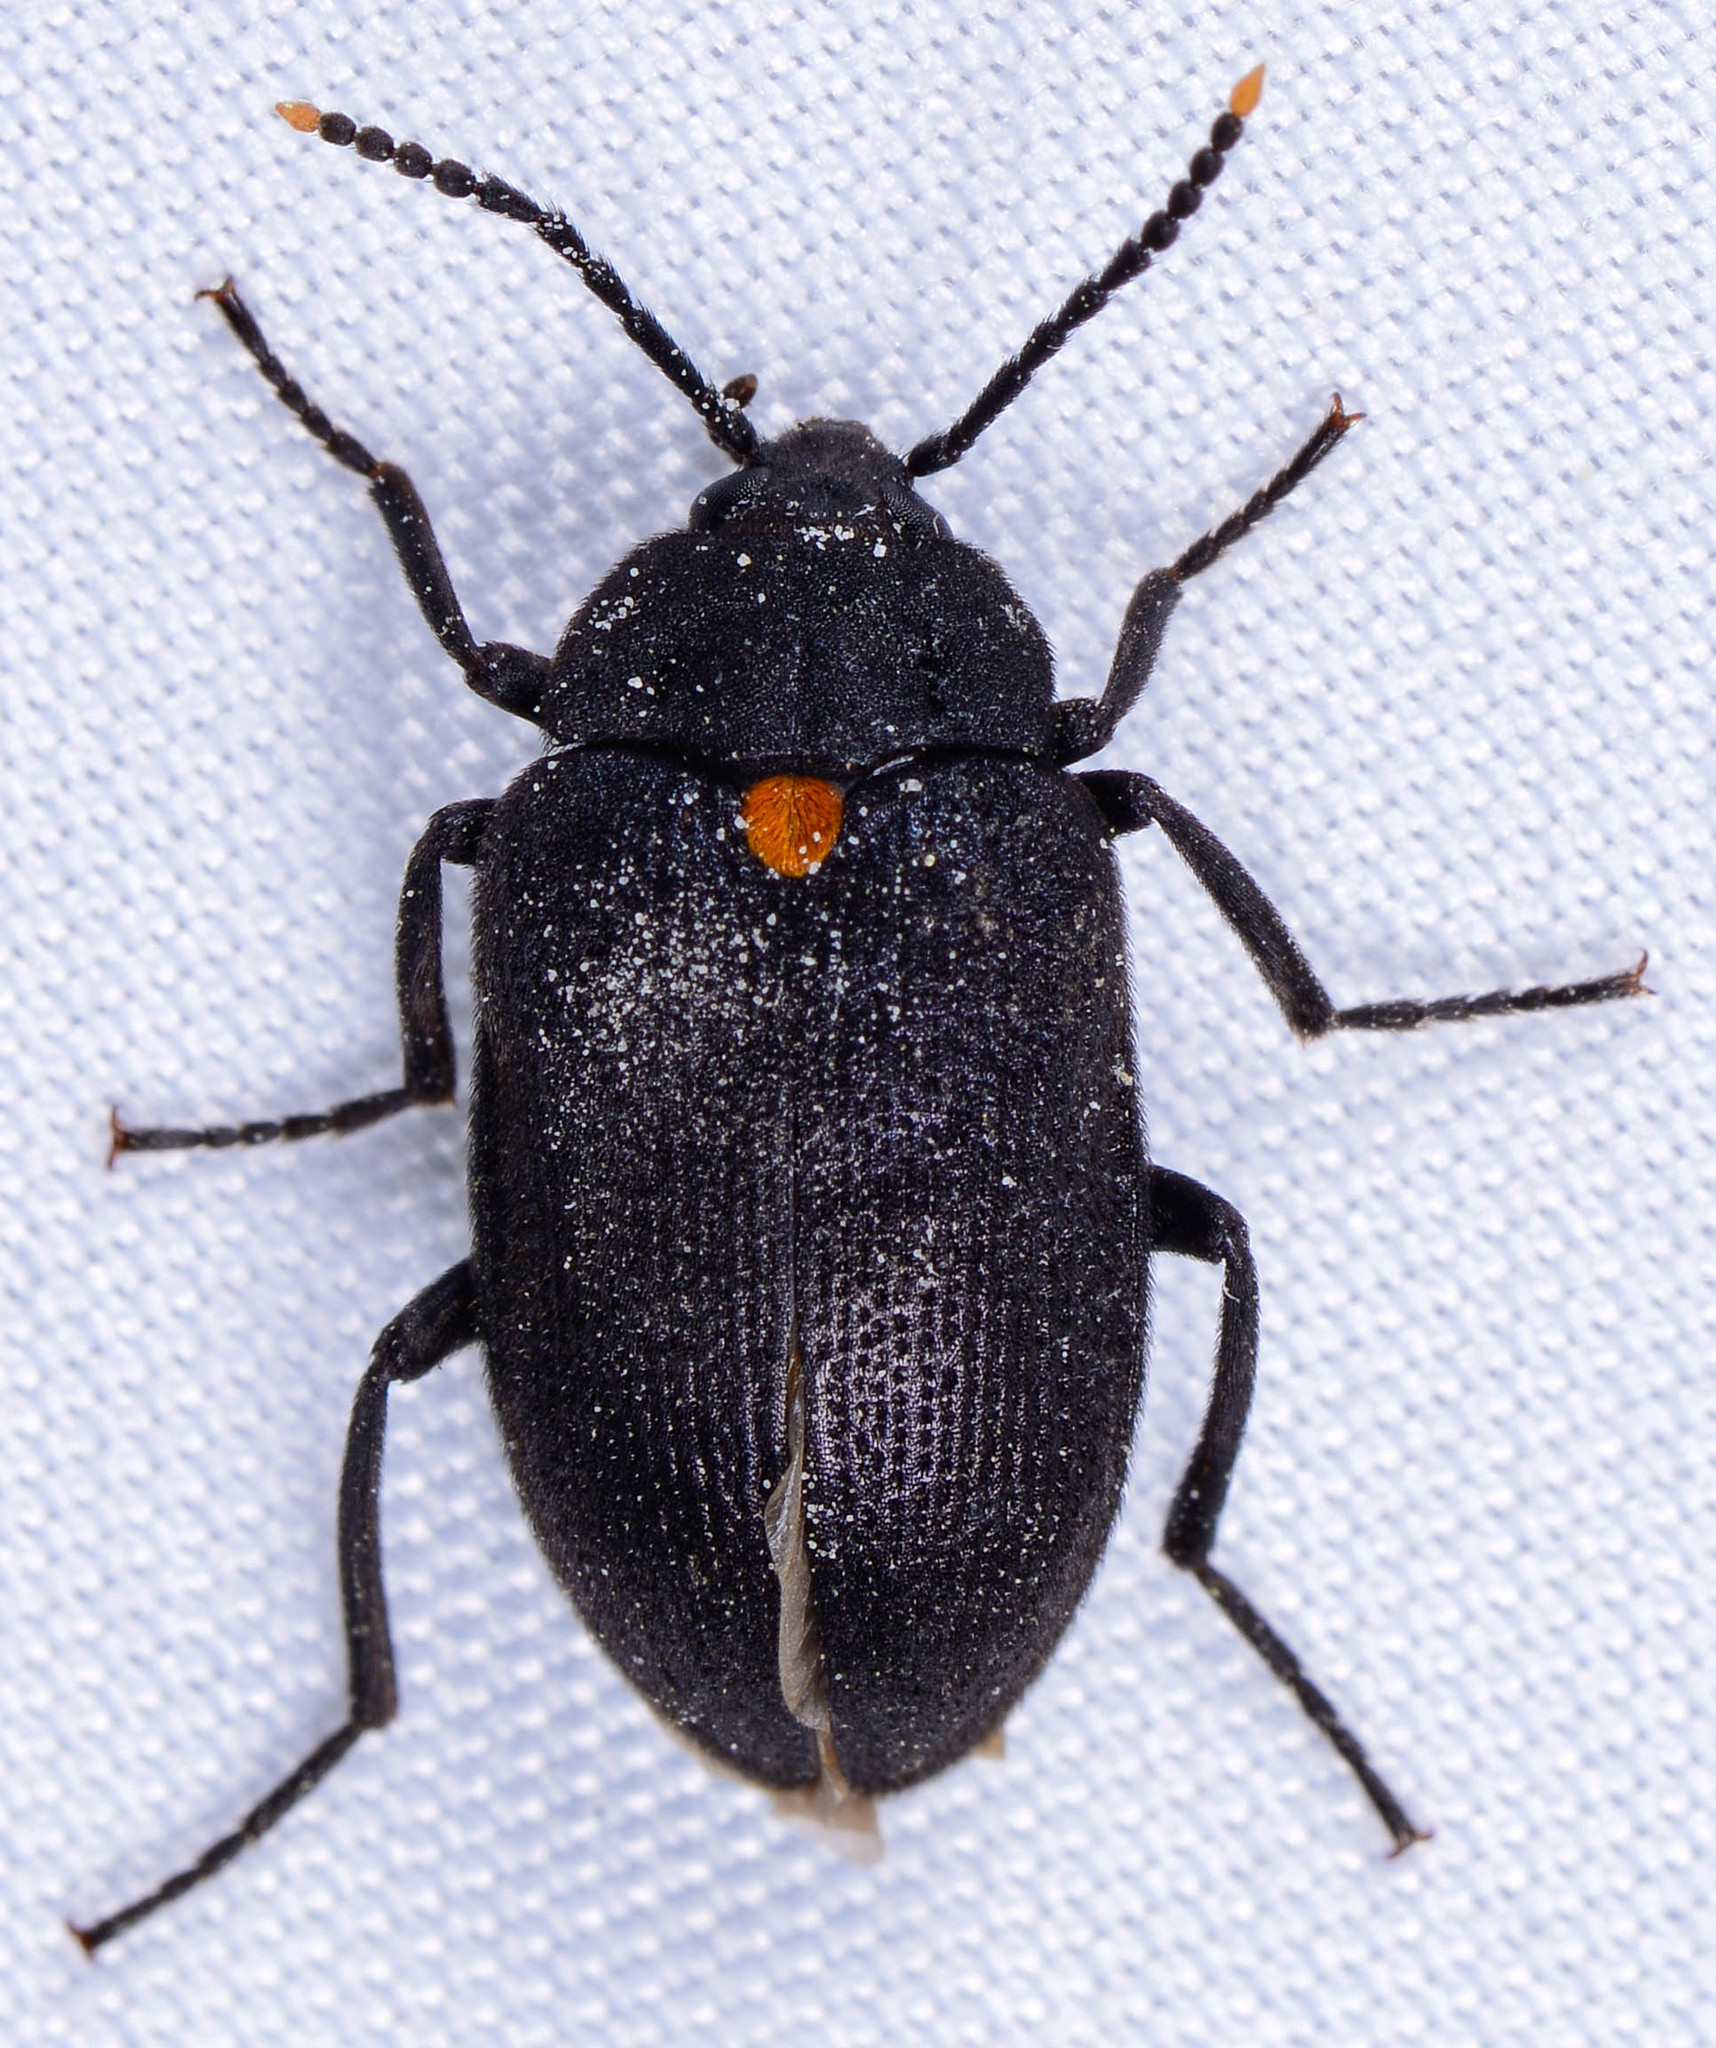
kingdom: Animalia
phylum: Arthropoda
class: Insecta
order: Coleoptera
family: Tetratomidae
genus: Penthe
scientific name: Penthe obliquata
